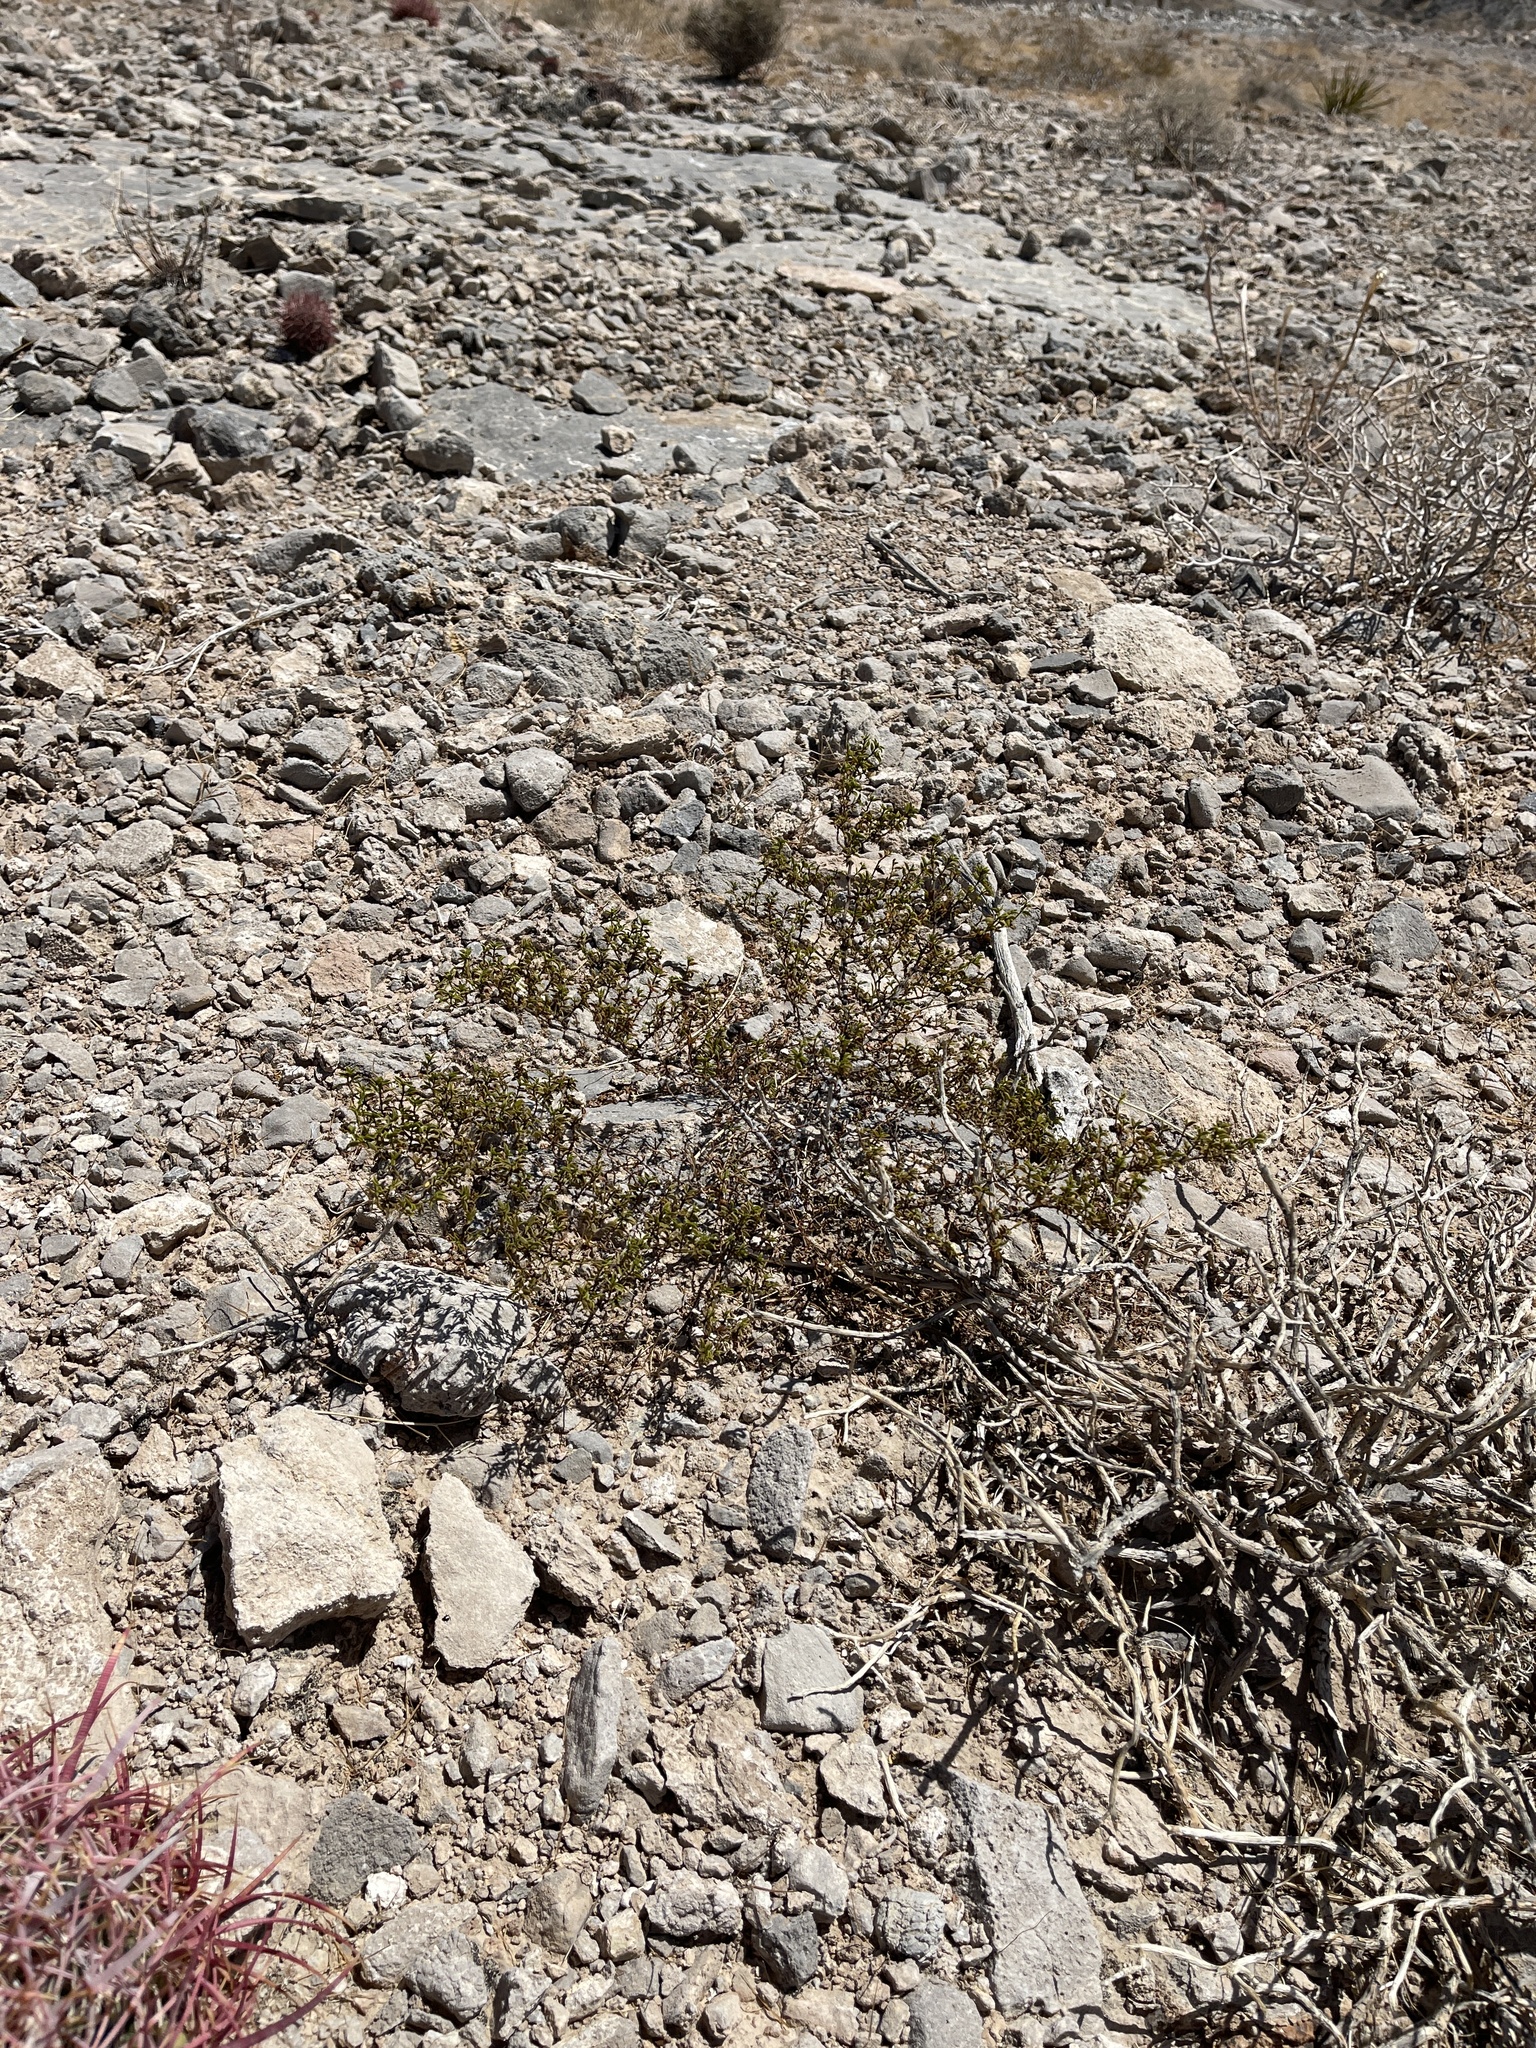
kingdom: Plantae
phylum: Tracheophyta
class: Magnoliopsida
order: Zygophyllales
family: Zygophyllaceae
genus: Larrea
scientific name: Larrea tridentata
